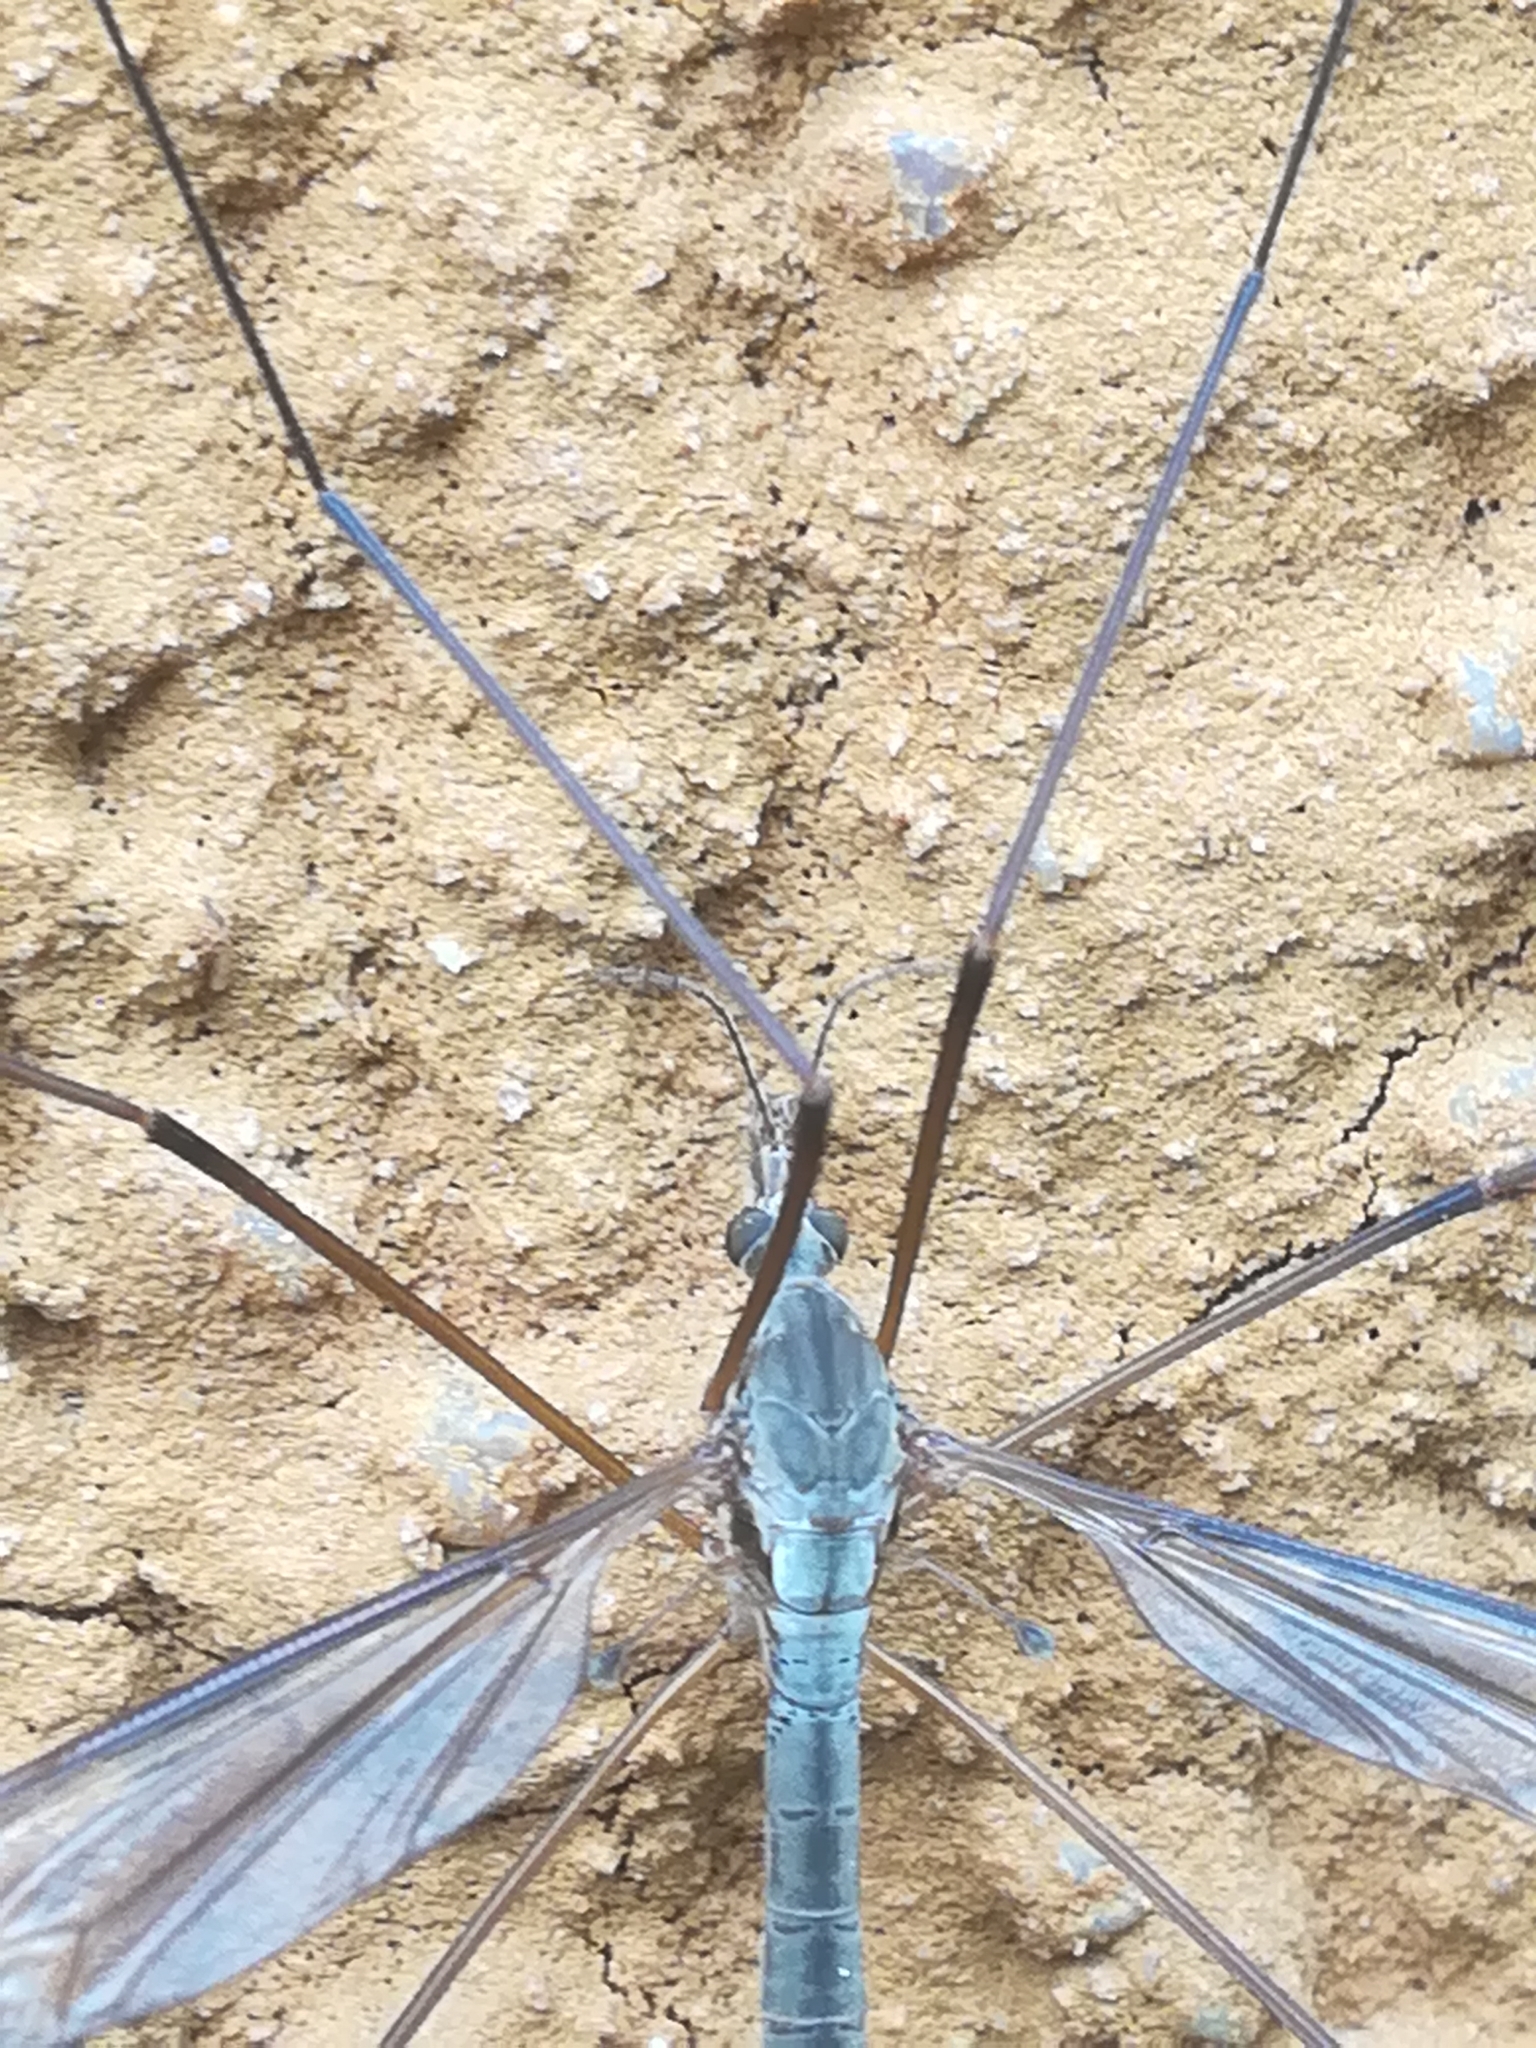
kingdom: Animalia
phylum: Arthropoda
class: Insecta
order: Diptera
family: Tipulidae
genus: Tipula
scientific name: Tipula oleracea
